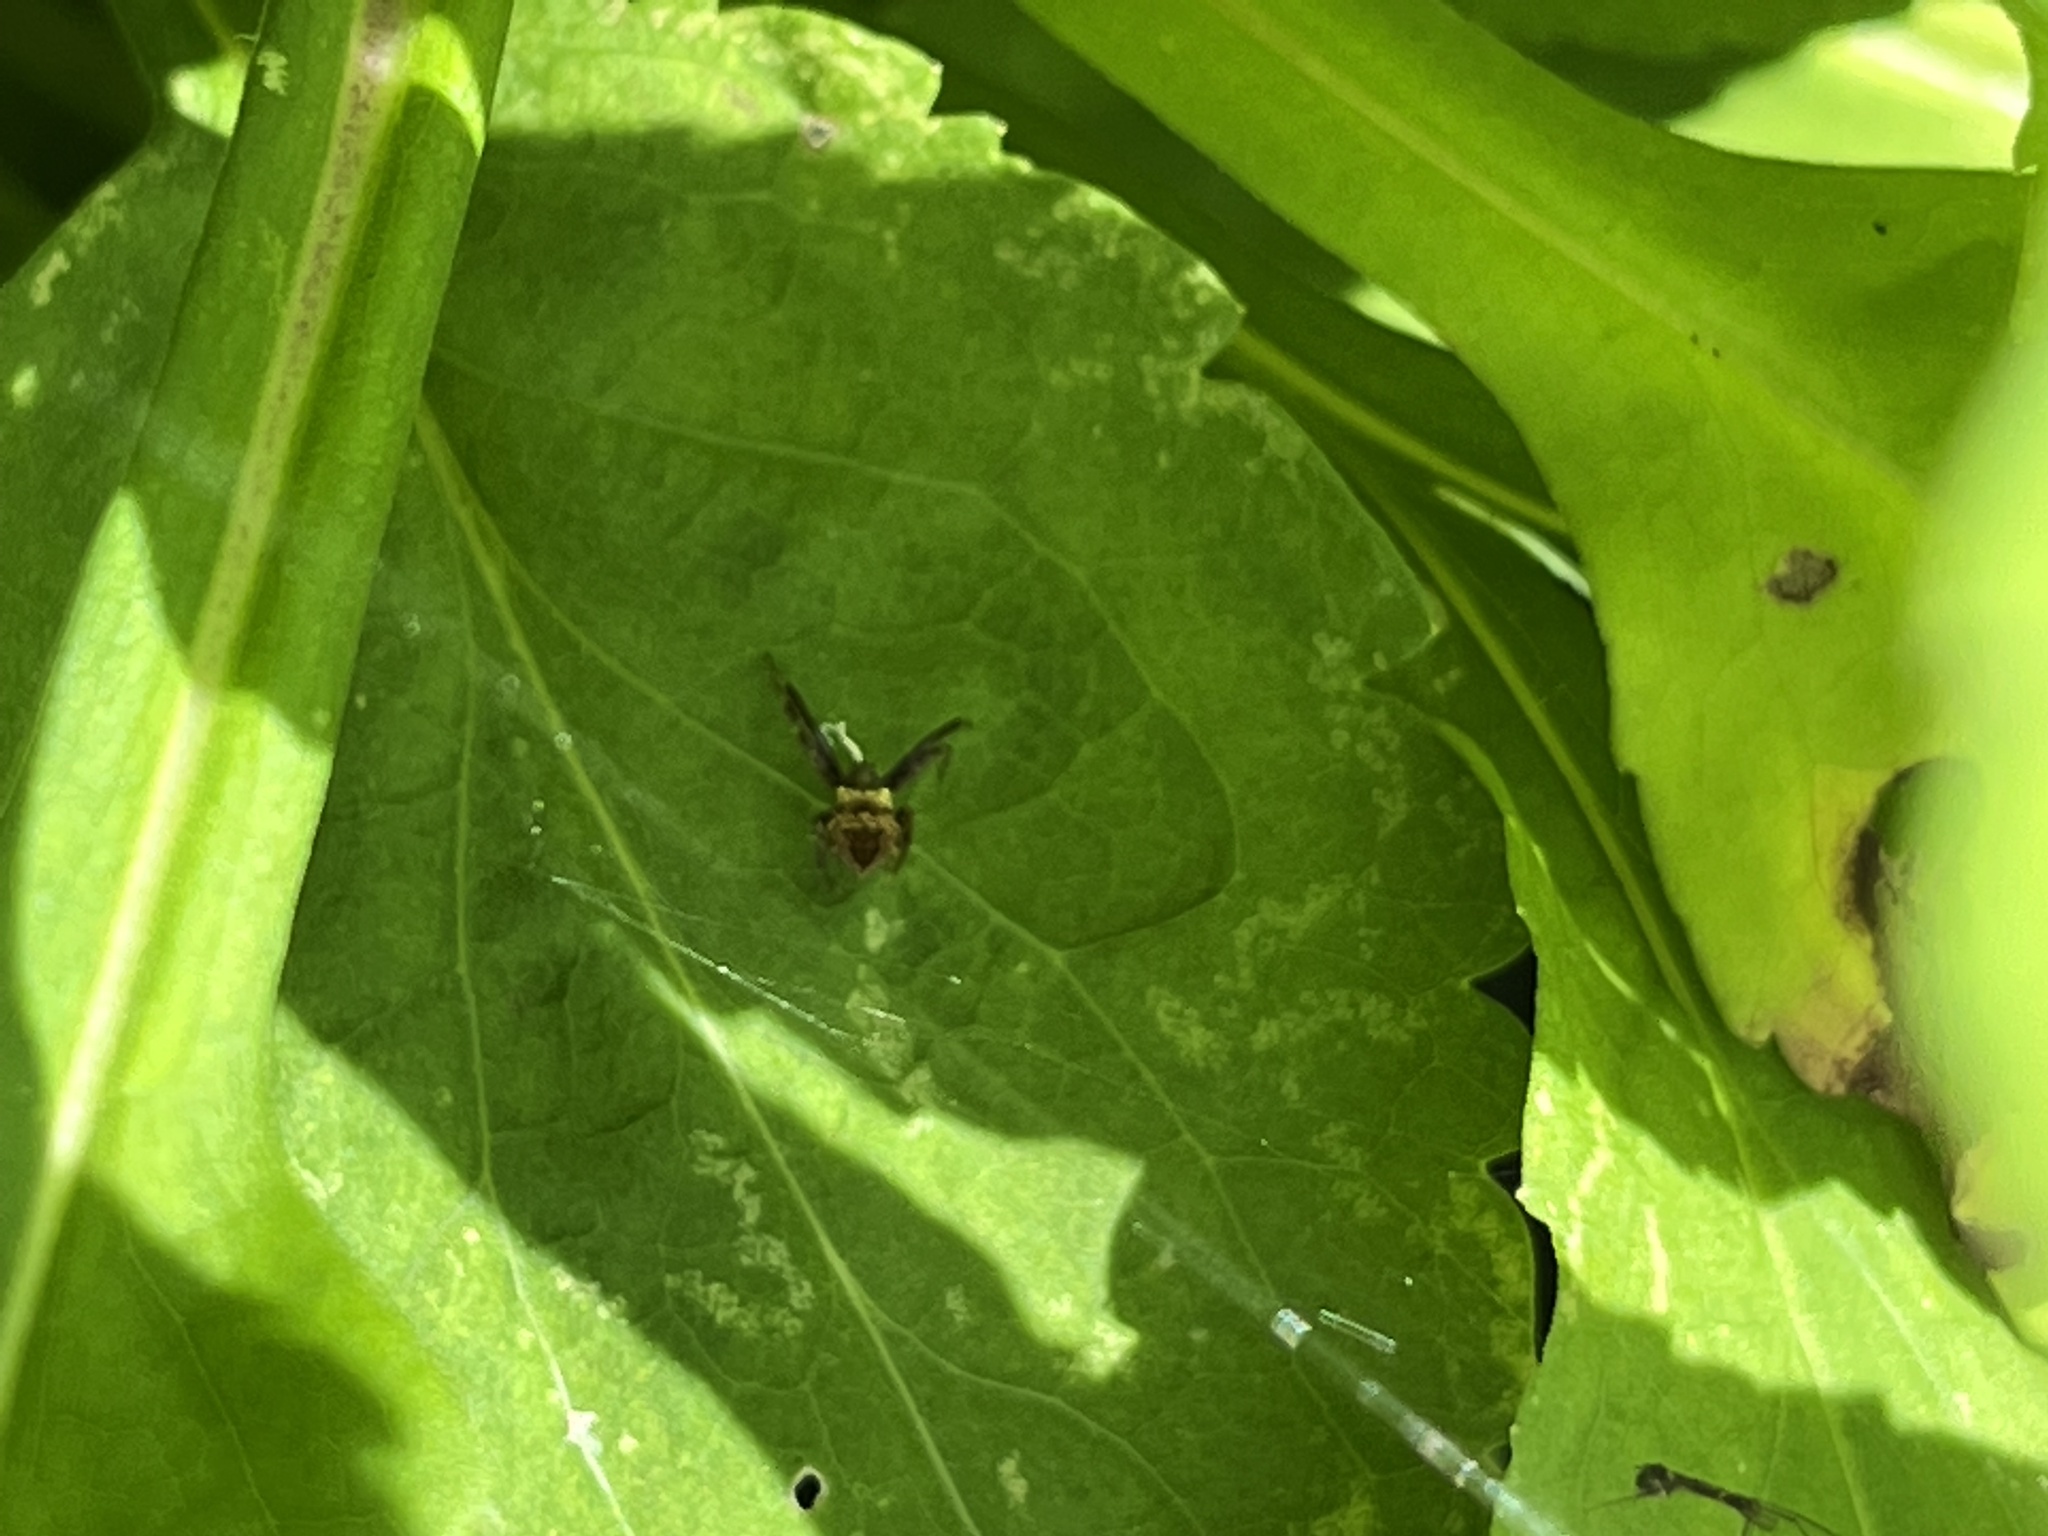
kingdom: Animalia
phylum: Arthropoda
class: Arachnida
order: Araneae
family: Araneidae
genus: Gea
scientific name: Gea heptagon
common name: Orb weavers
